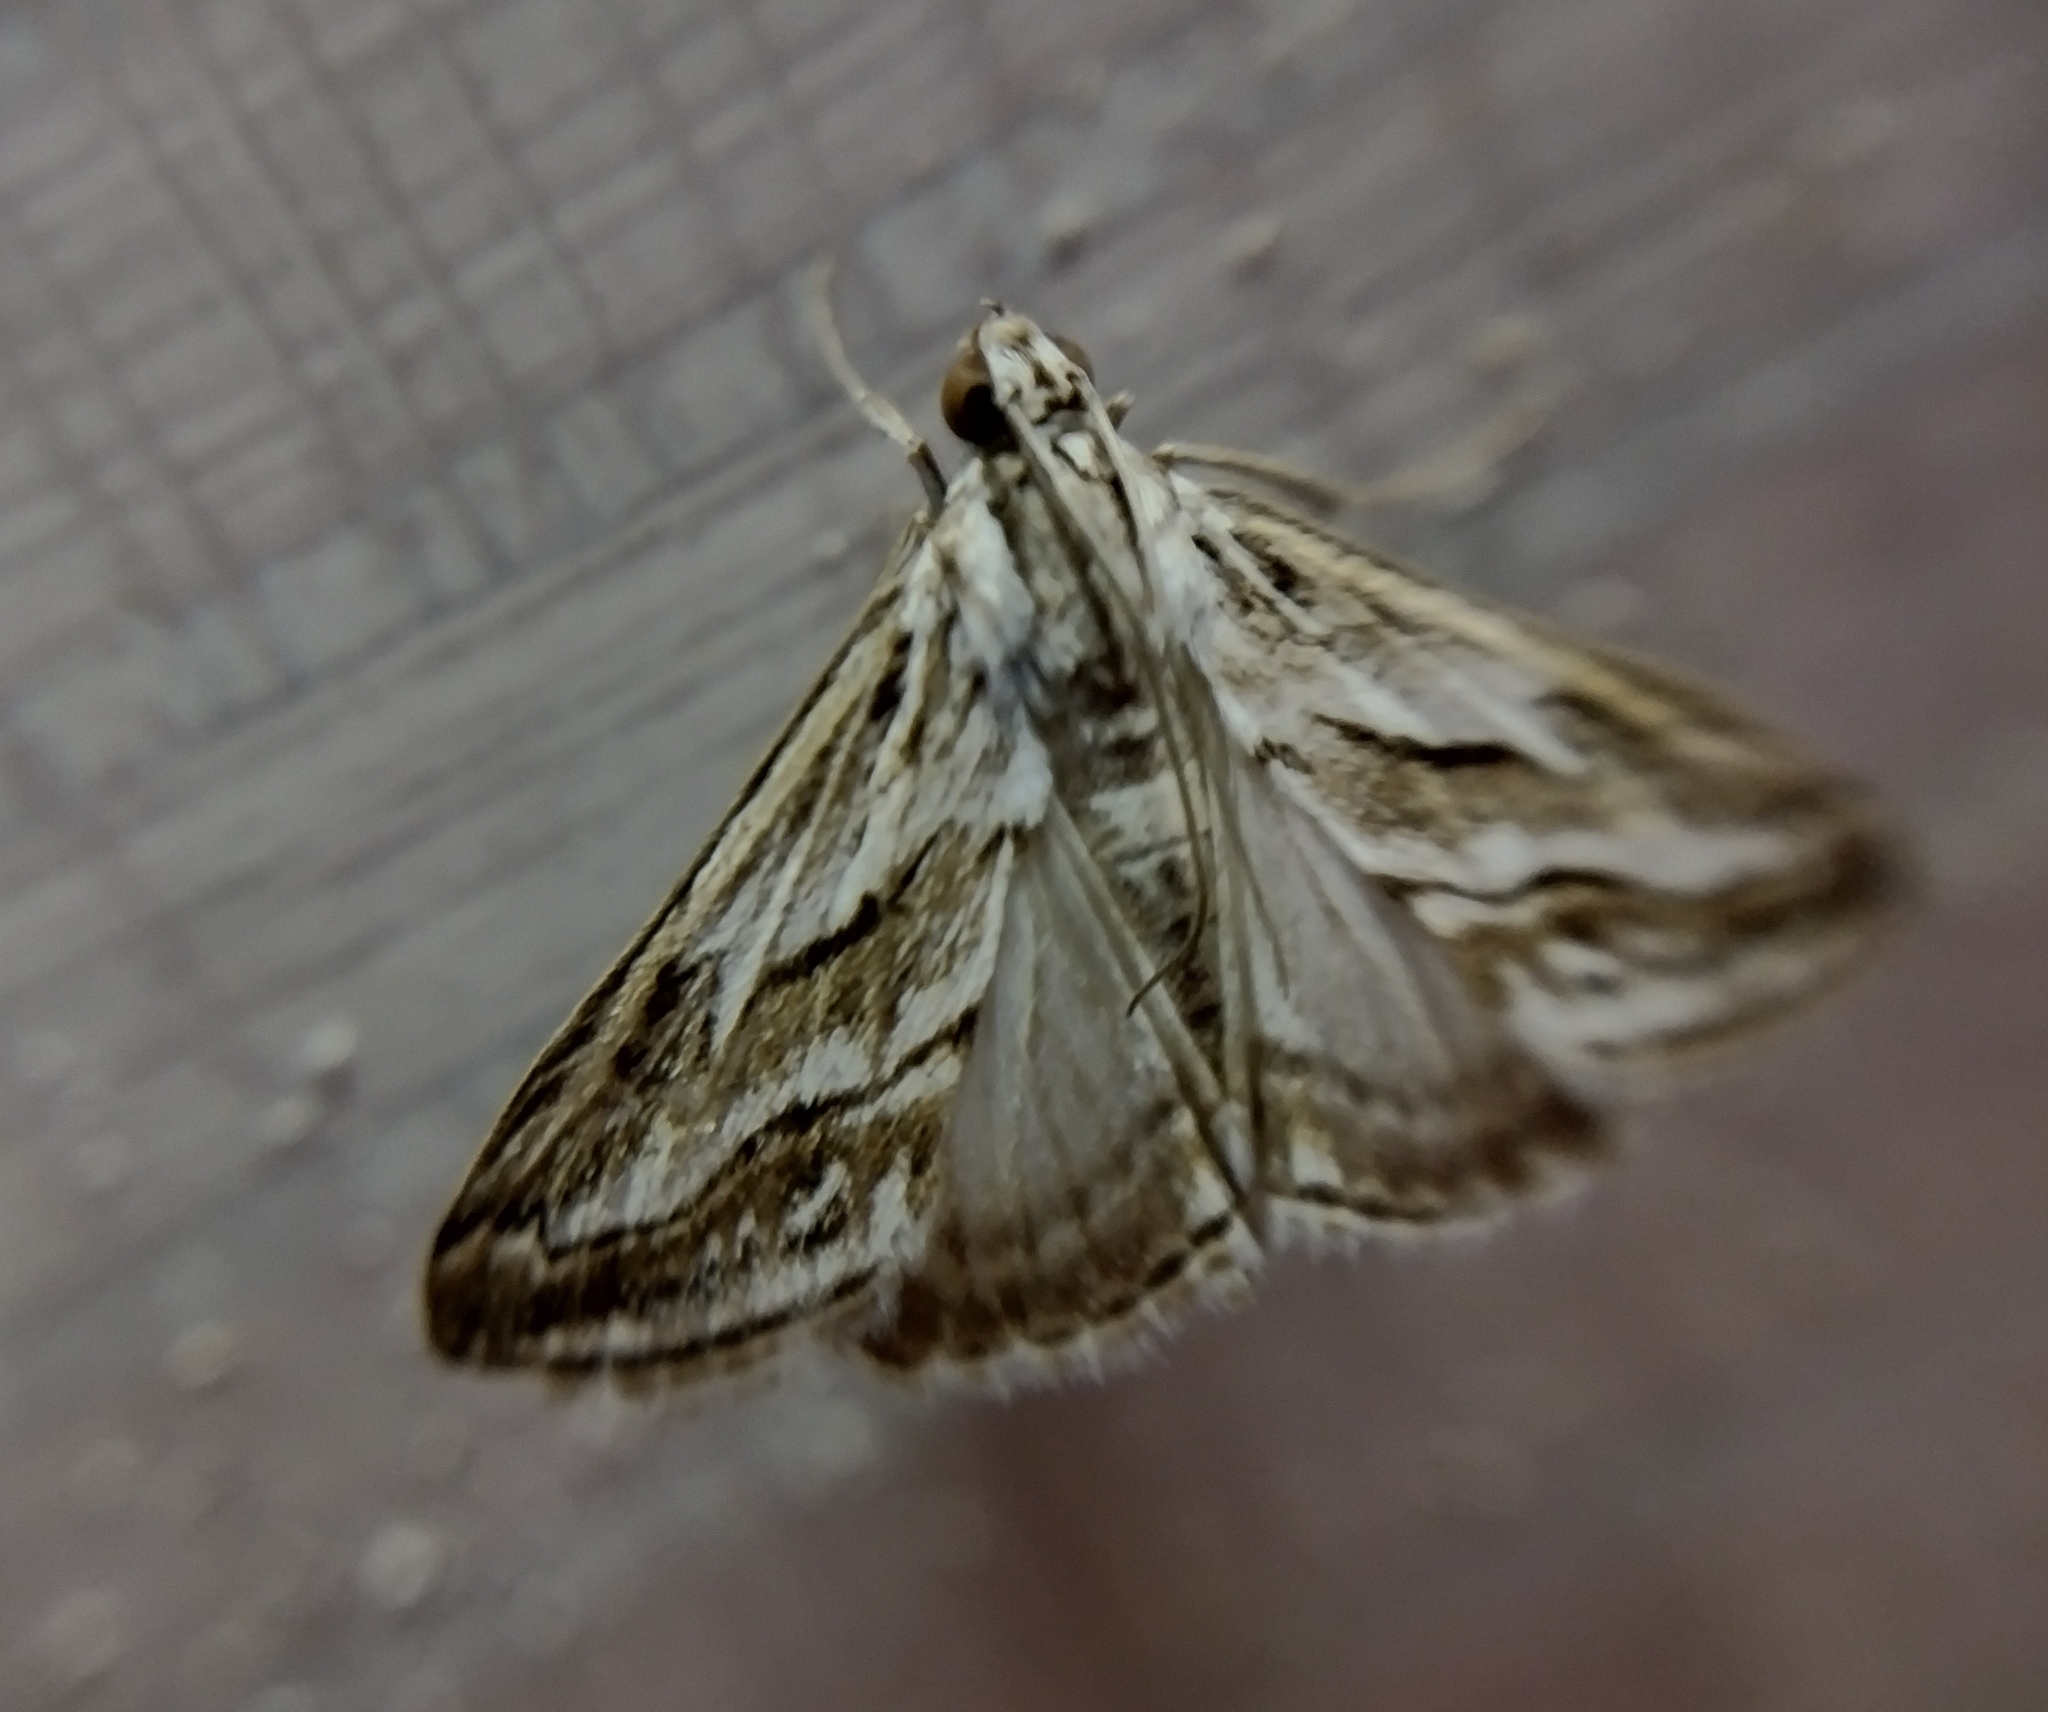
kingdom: Animalia
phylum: Arthropoda
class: Insecta
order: Lepidoptera
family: Crambidae
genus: Evergestis
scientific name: Evergestis desertalis
